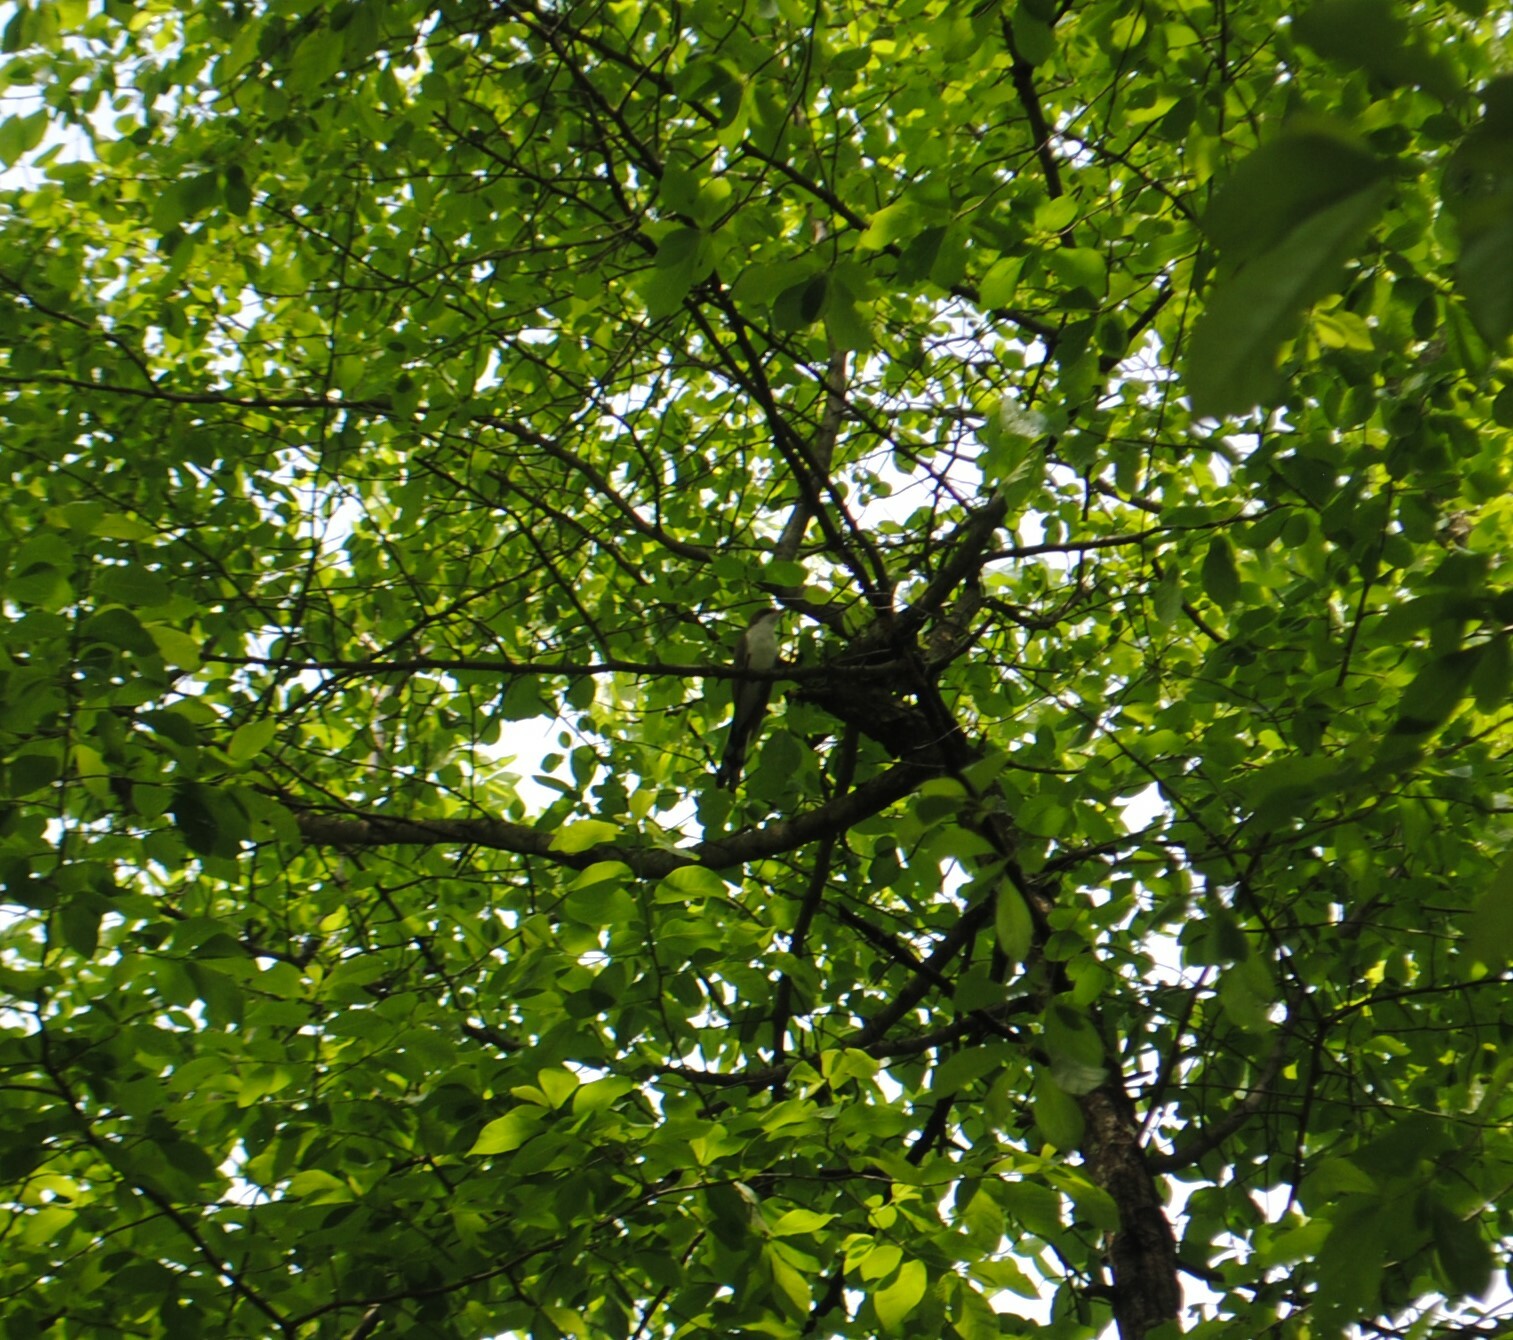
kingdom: Animalia
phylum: Chordata
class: Aves
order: Cuculiformes
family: Cuculidae
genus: Coccyzus
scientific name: Coccyzus erythropthalmus
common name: Black-billed cuckoo
